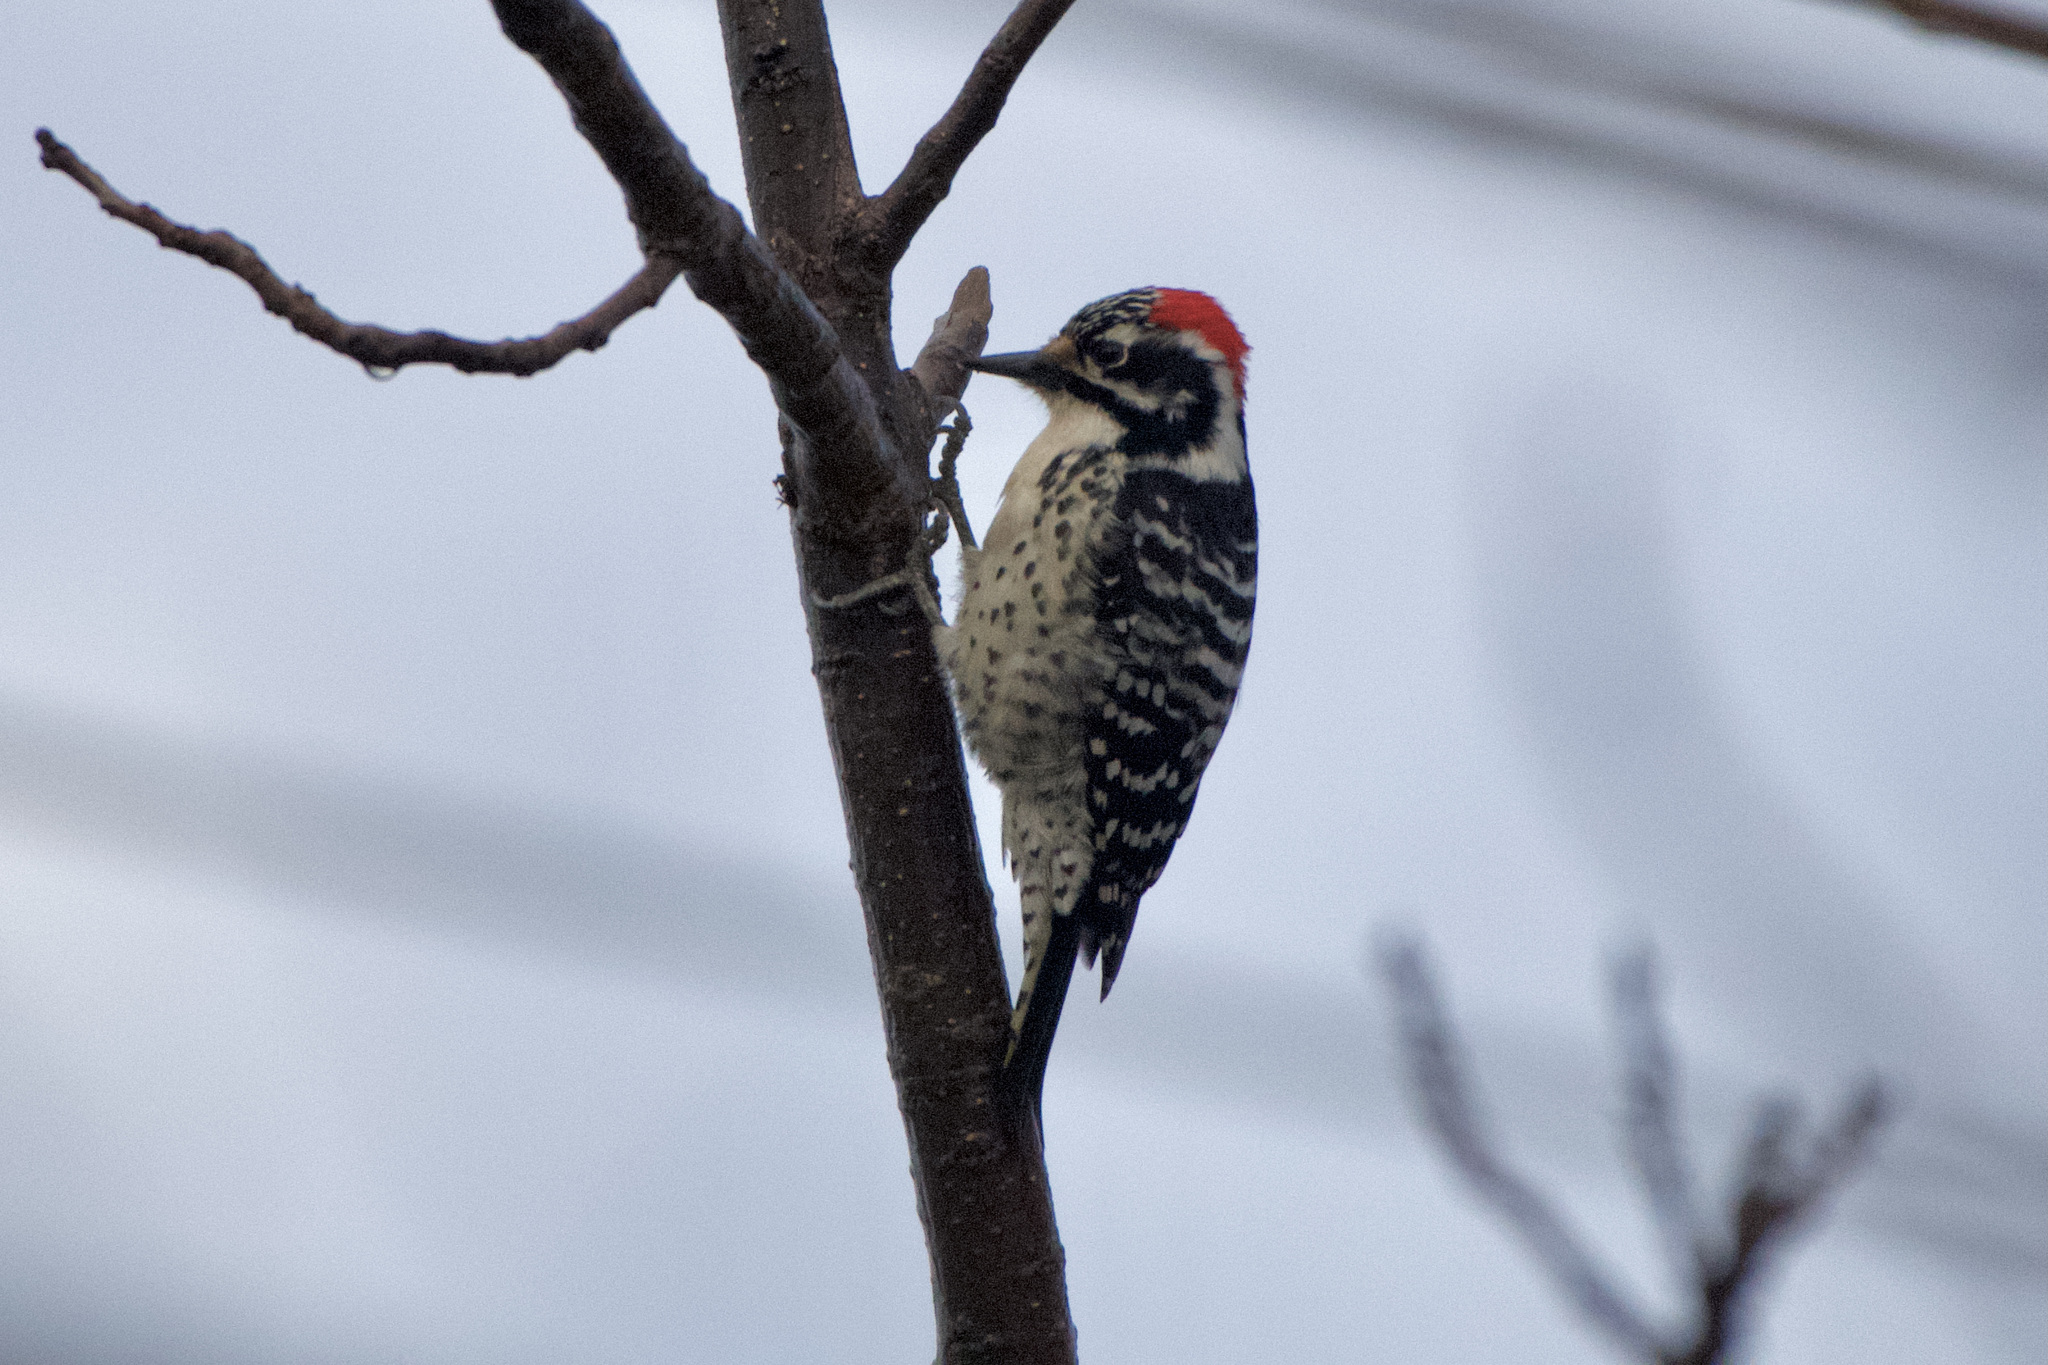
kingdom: Animalia
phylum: Chordata
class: Aves
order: Piciformes
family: Picidae
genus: Dryobates
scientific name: Dryobates nuttallii
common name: Nuttall's woodpecker
